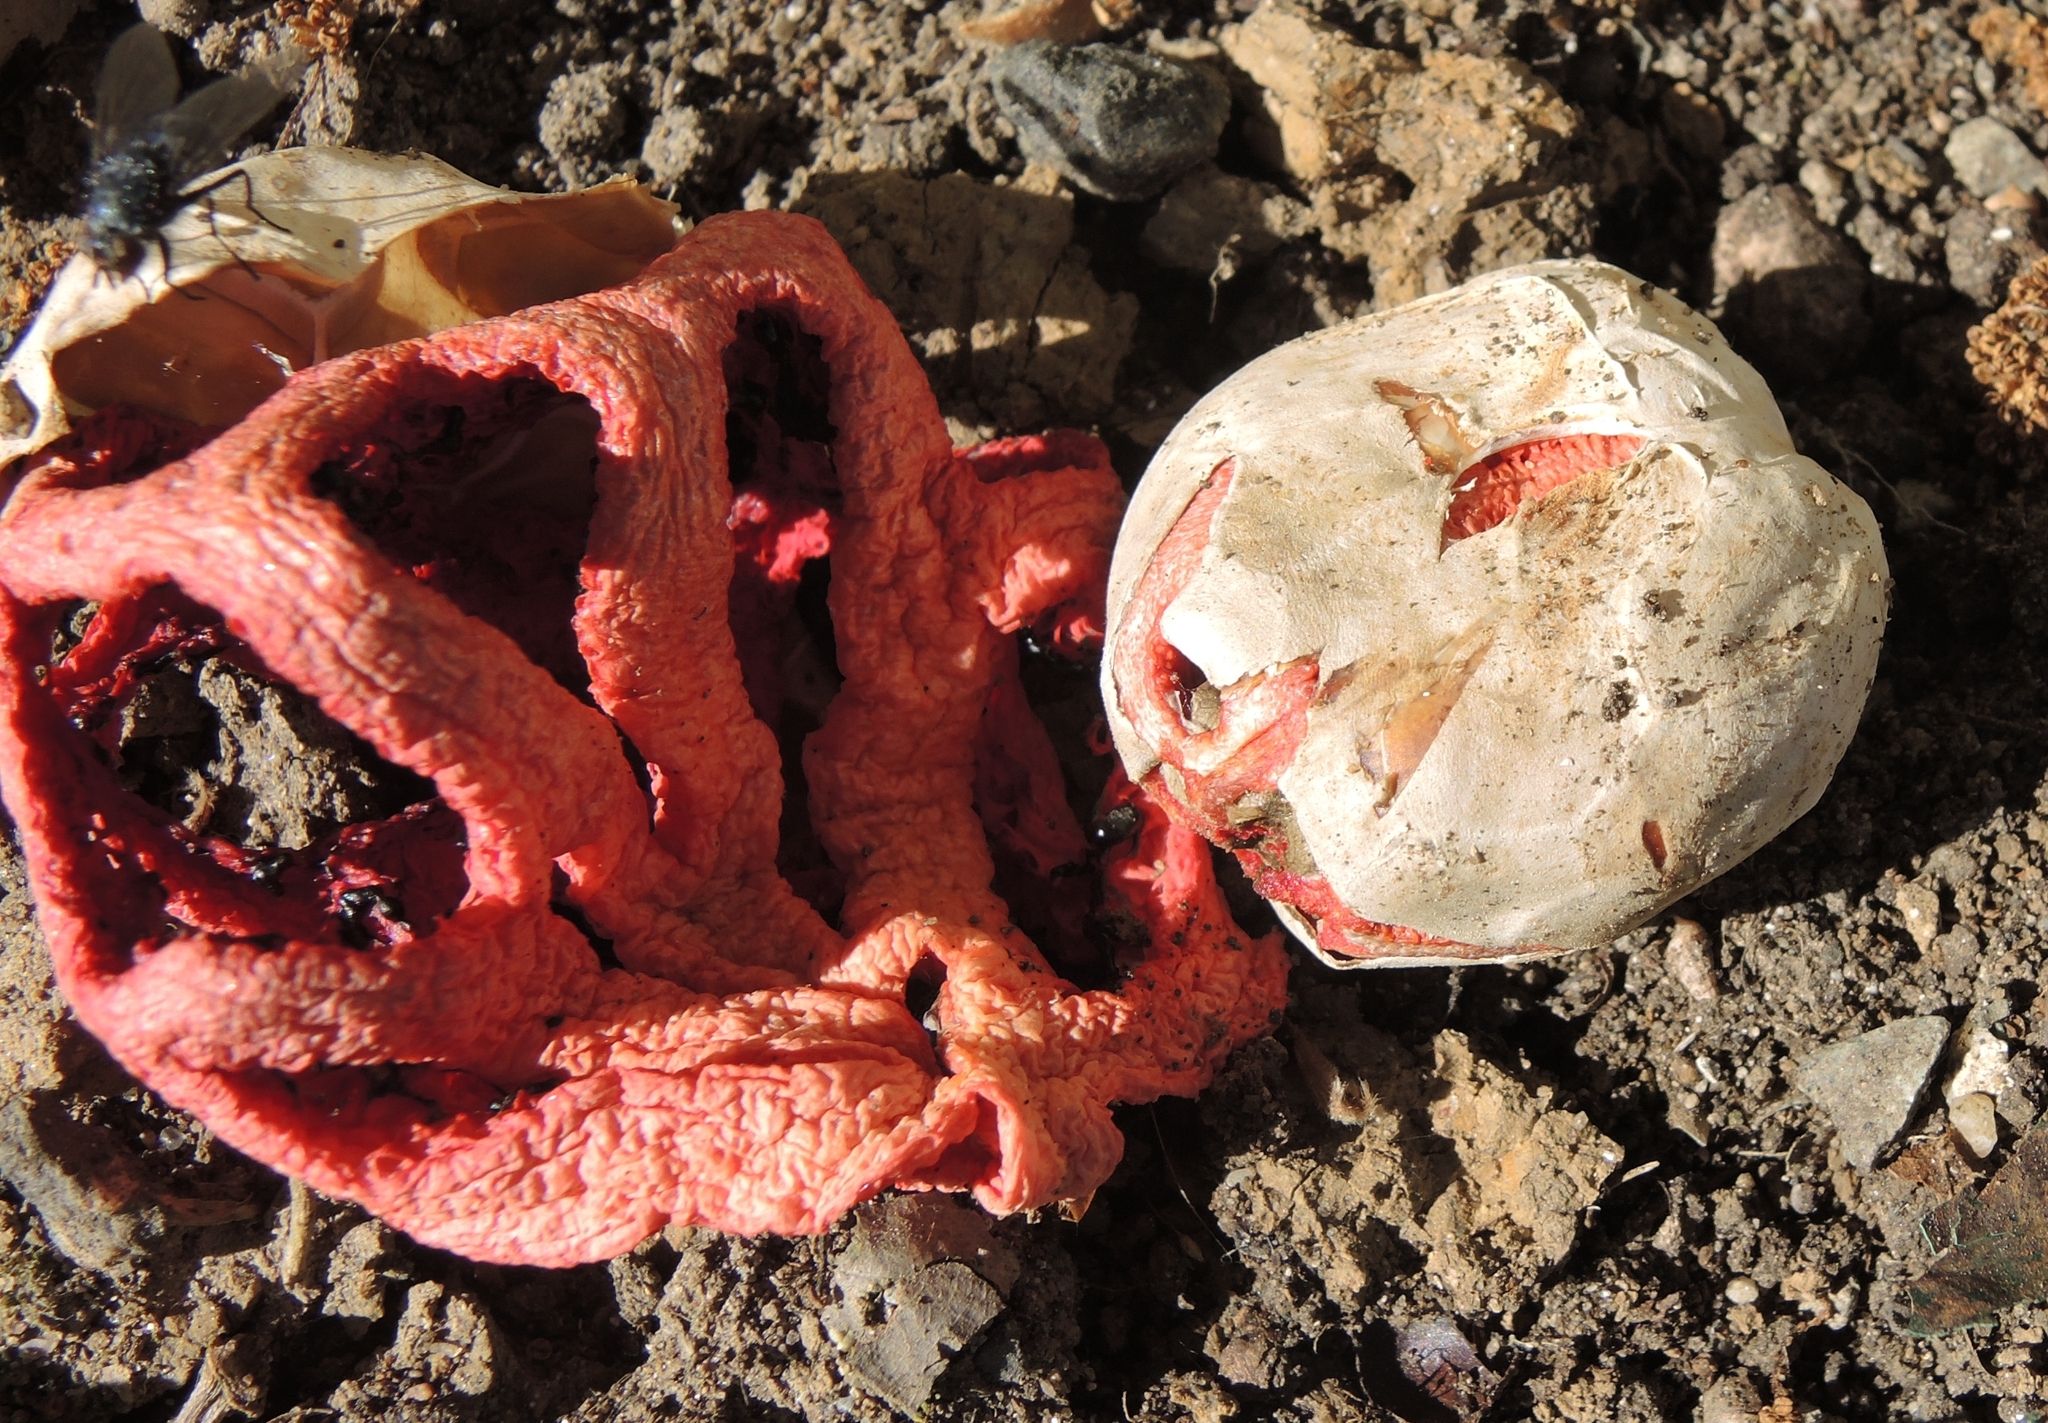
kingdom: Fungi
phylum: Basidiomycota
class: Agaricomycetes
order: Phallales
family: Phallaceae
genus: Clathrus
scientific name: Clathrus ruber
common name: Red cage
